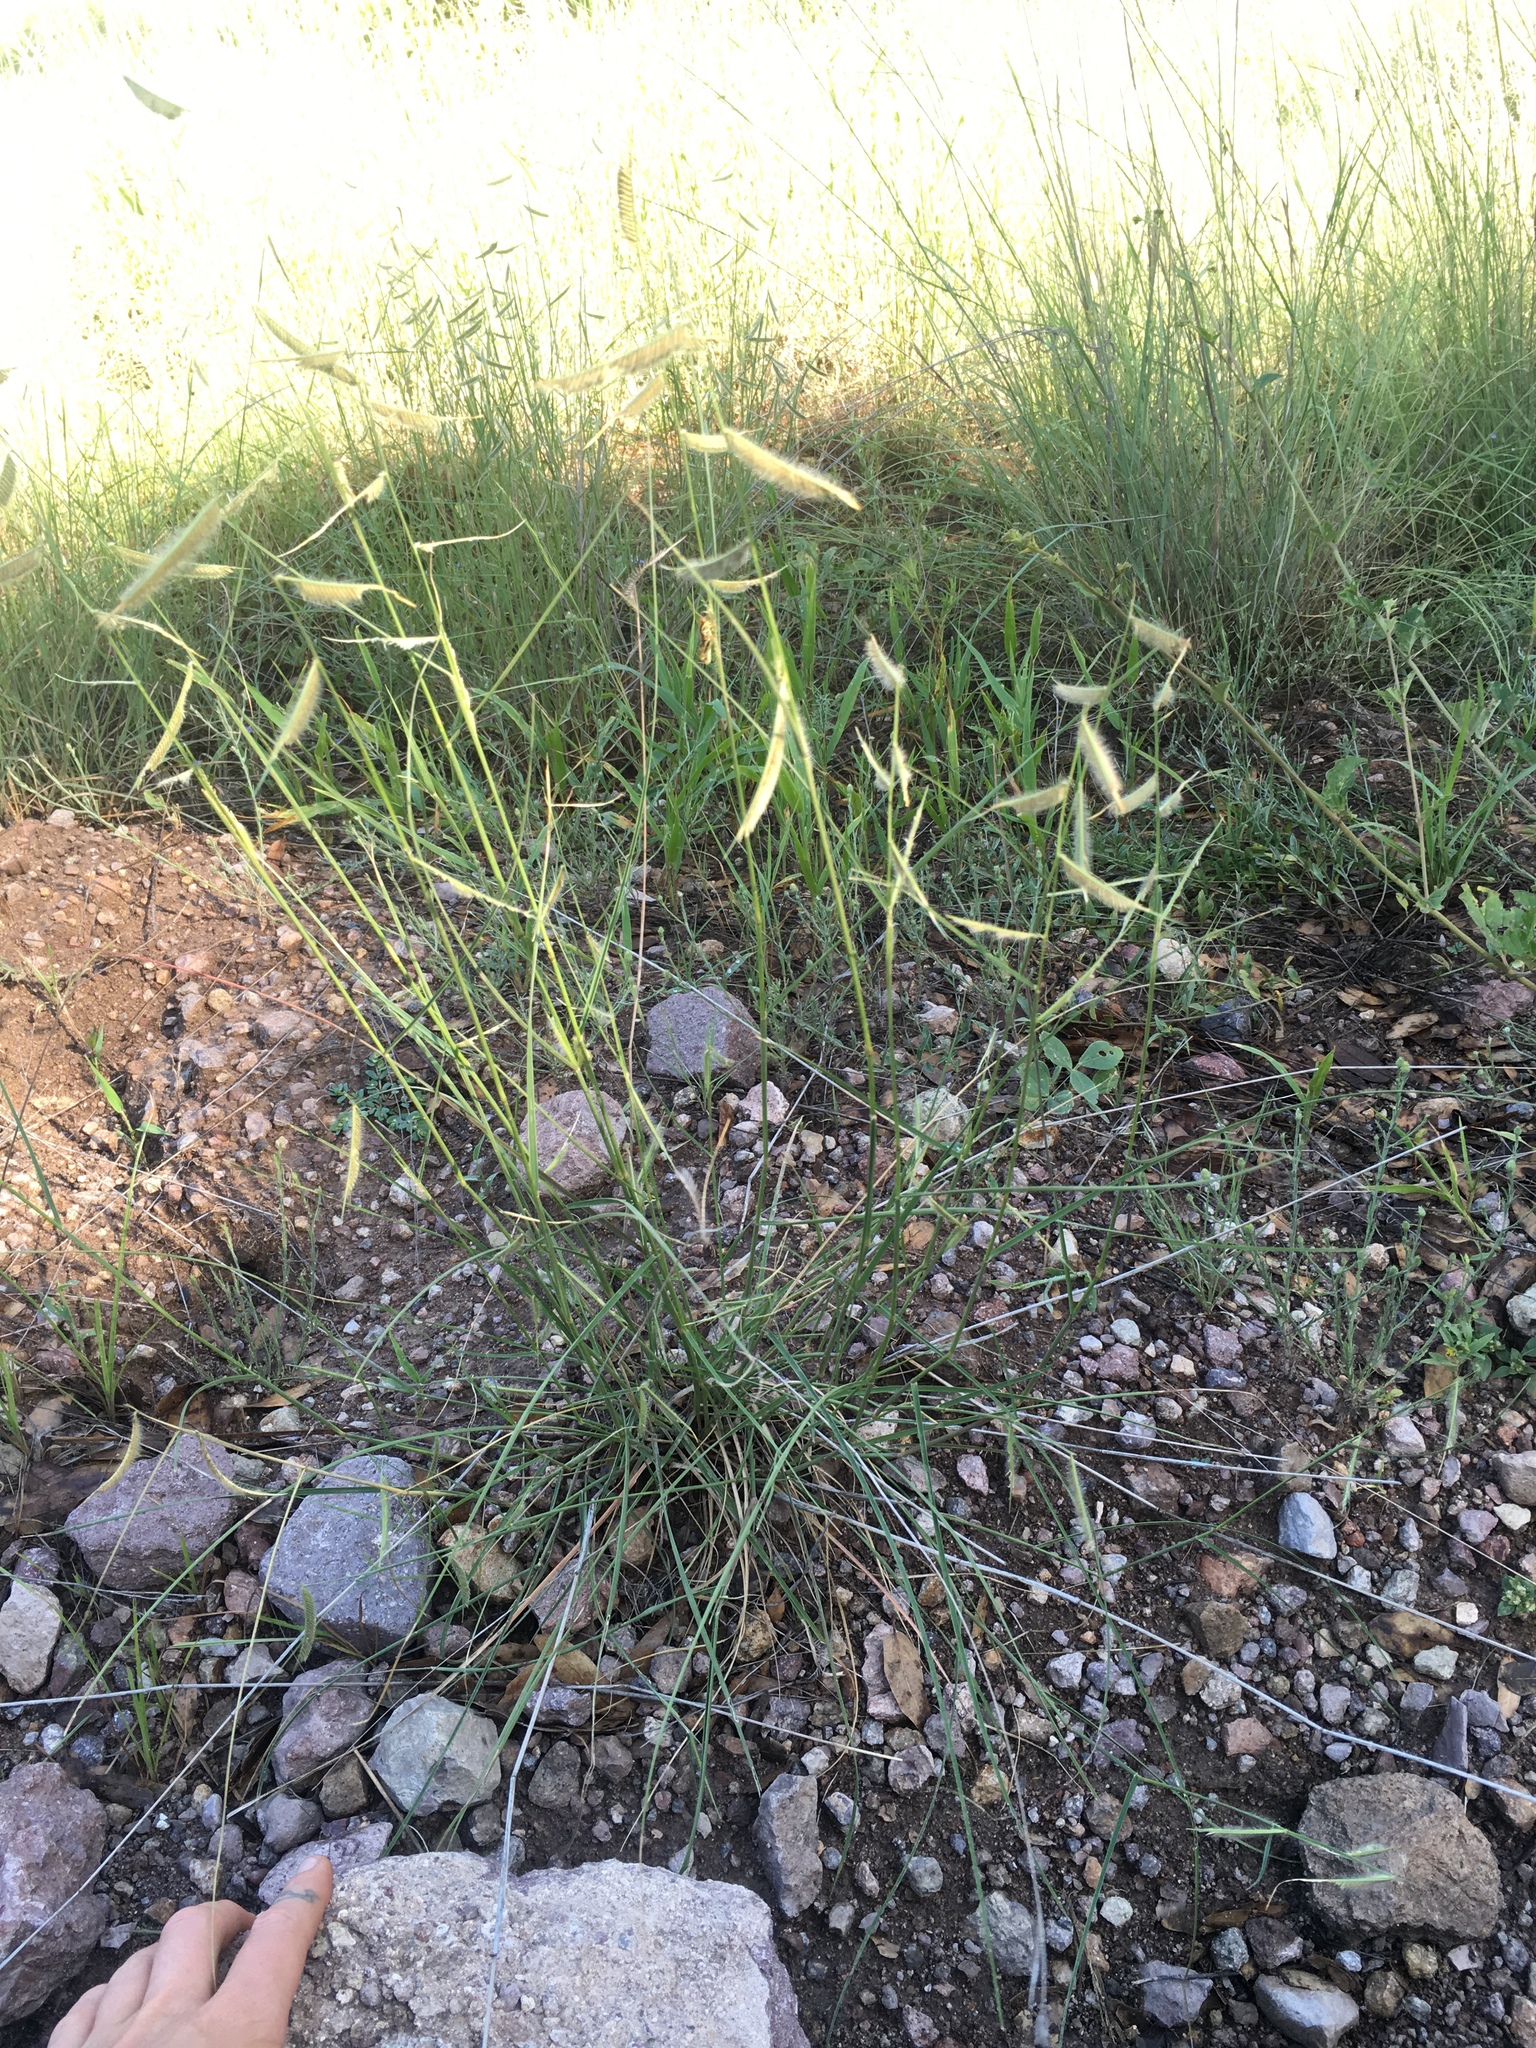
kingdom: Plantae
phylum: Tracheophyta
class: Liliopsida
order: Poales
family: Poaceae
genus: Bouteloua
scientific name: Bouteloua hirsuta
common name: Hairy grama
